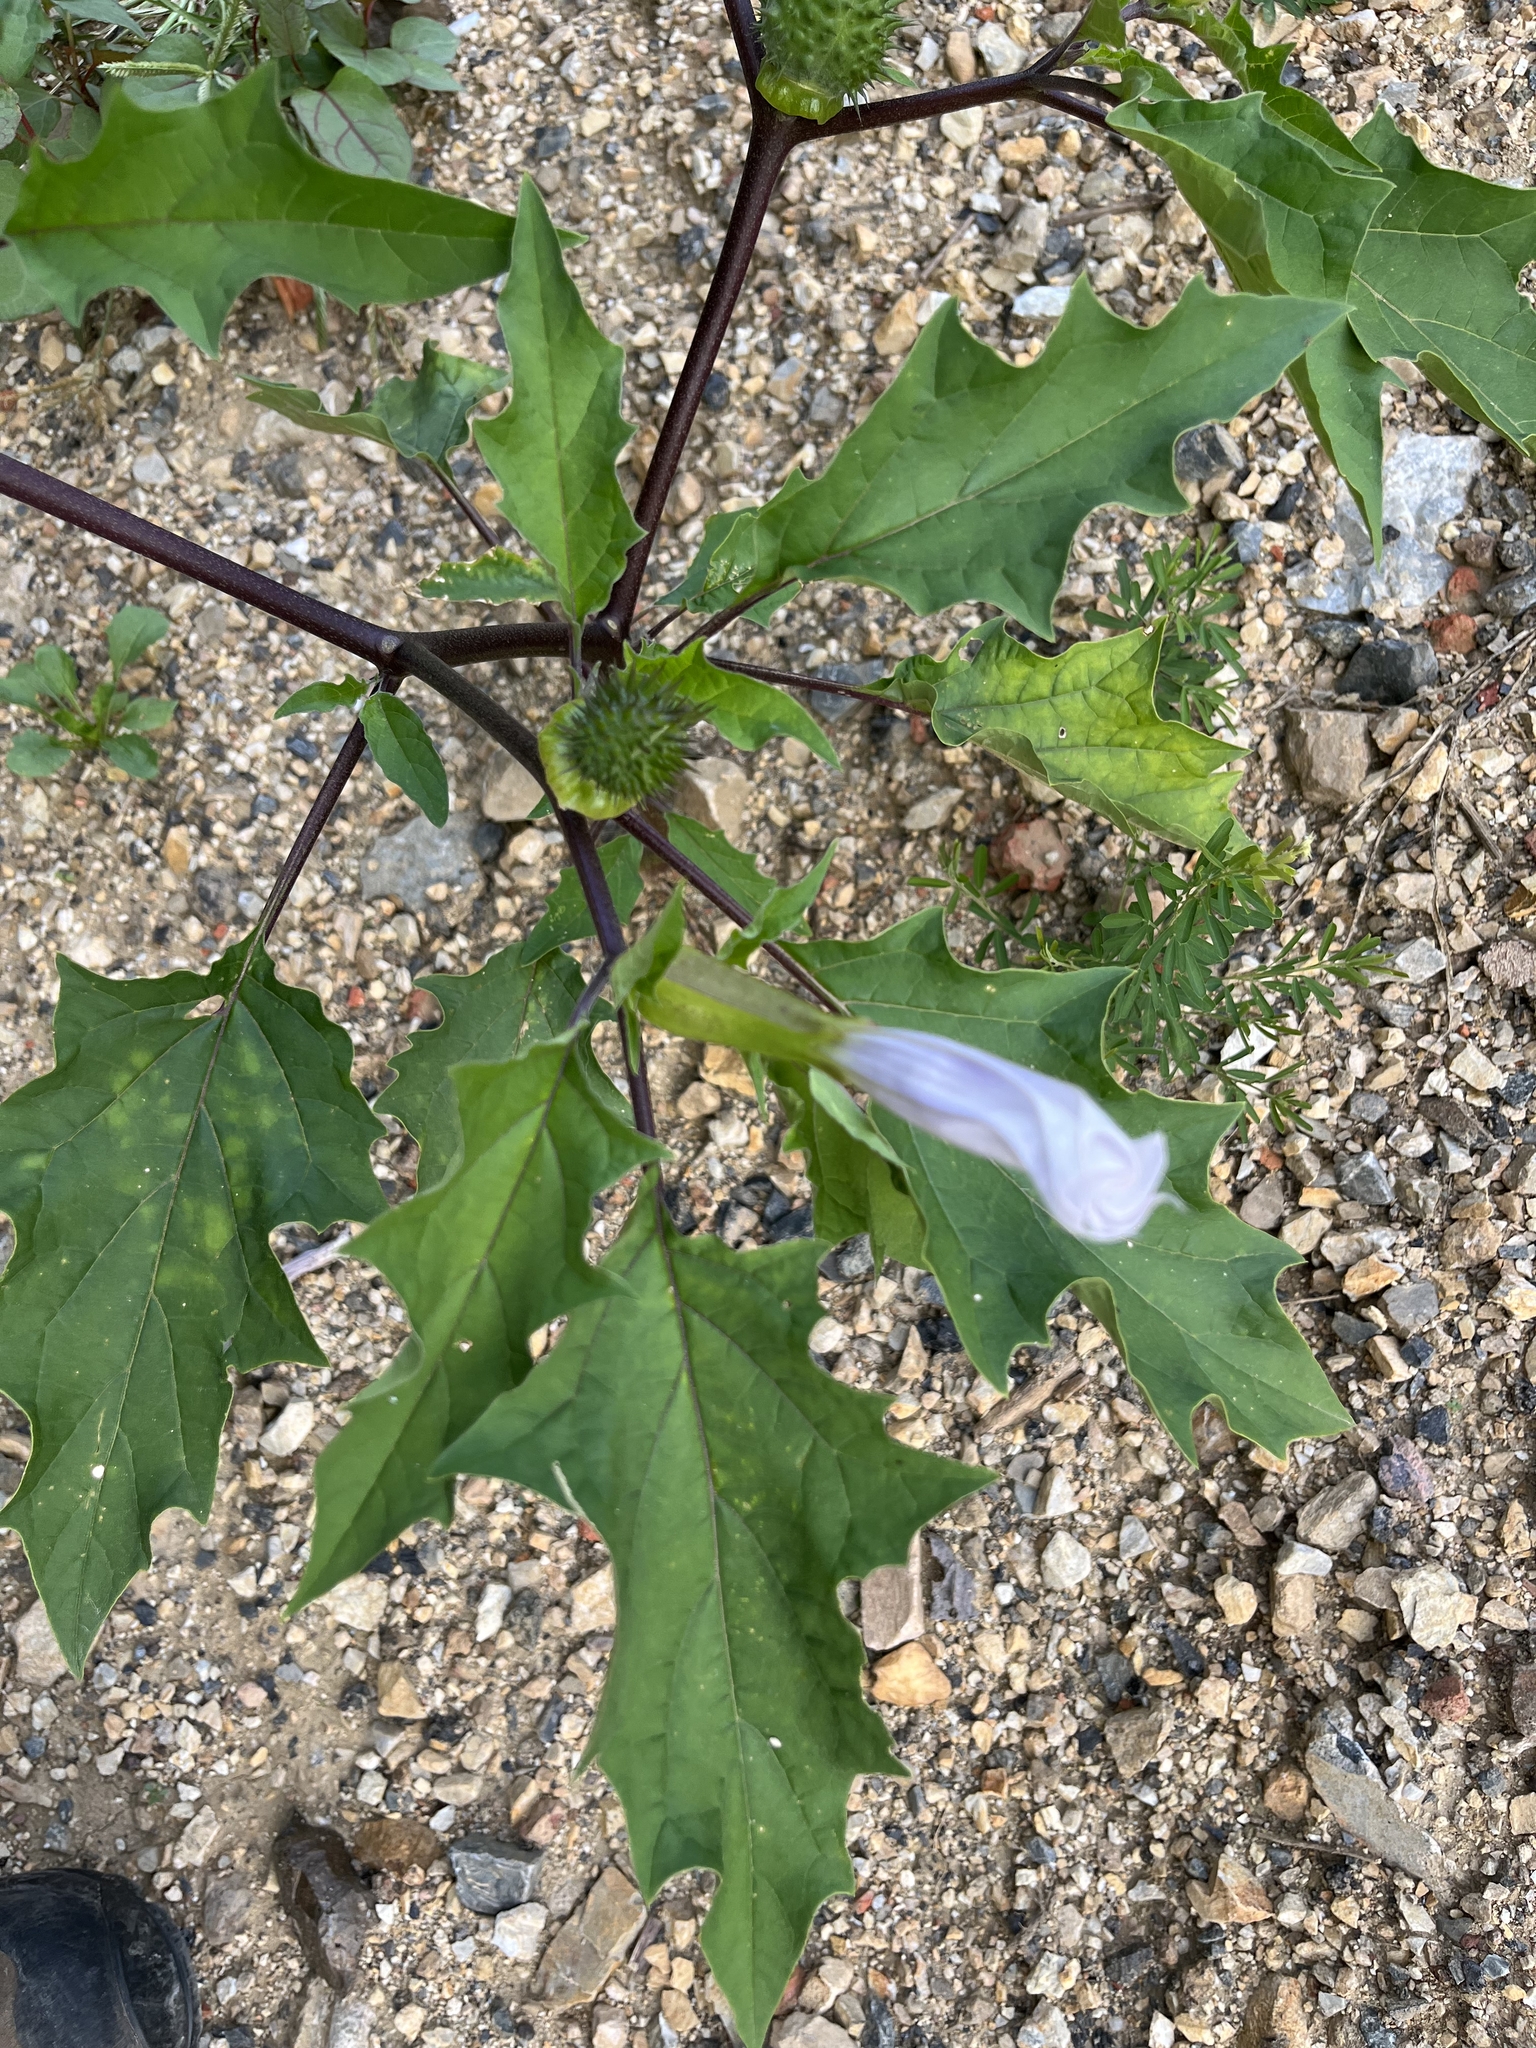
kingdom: Plantae
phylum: Tracheophyta
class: Magnoliopsida
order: Solanales
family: Solanaceae
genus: Datura
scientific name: Datura stramonium
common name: Thorn-apple
